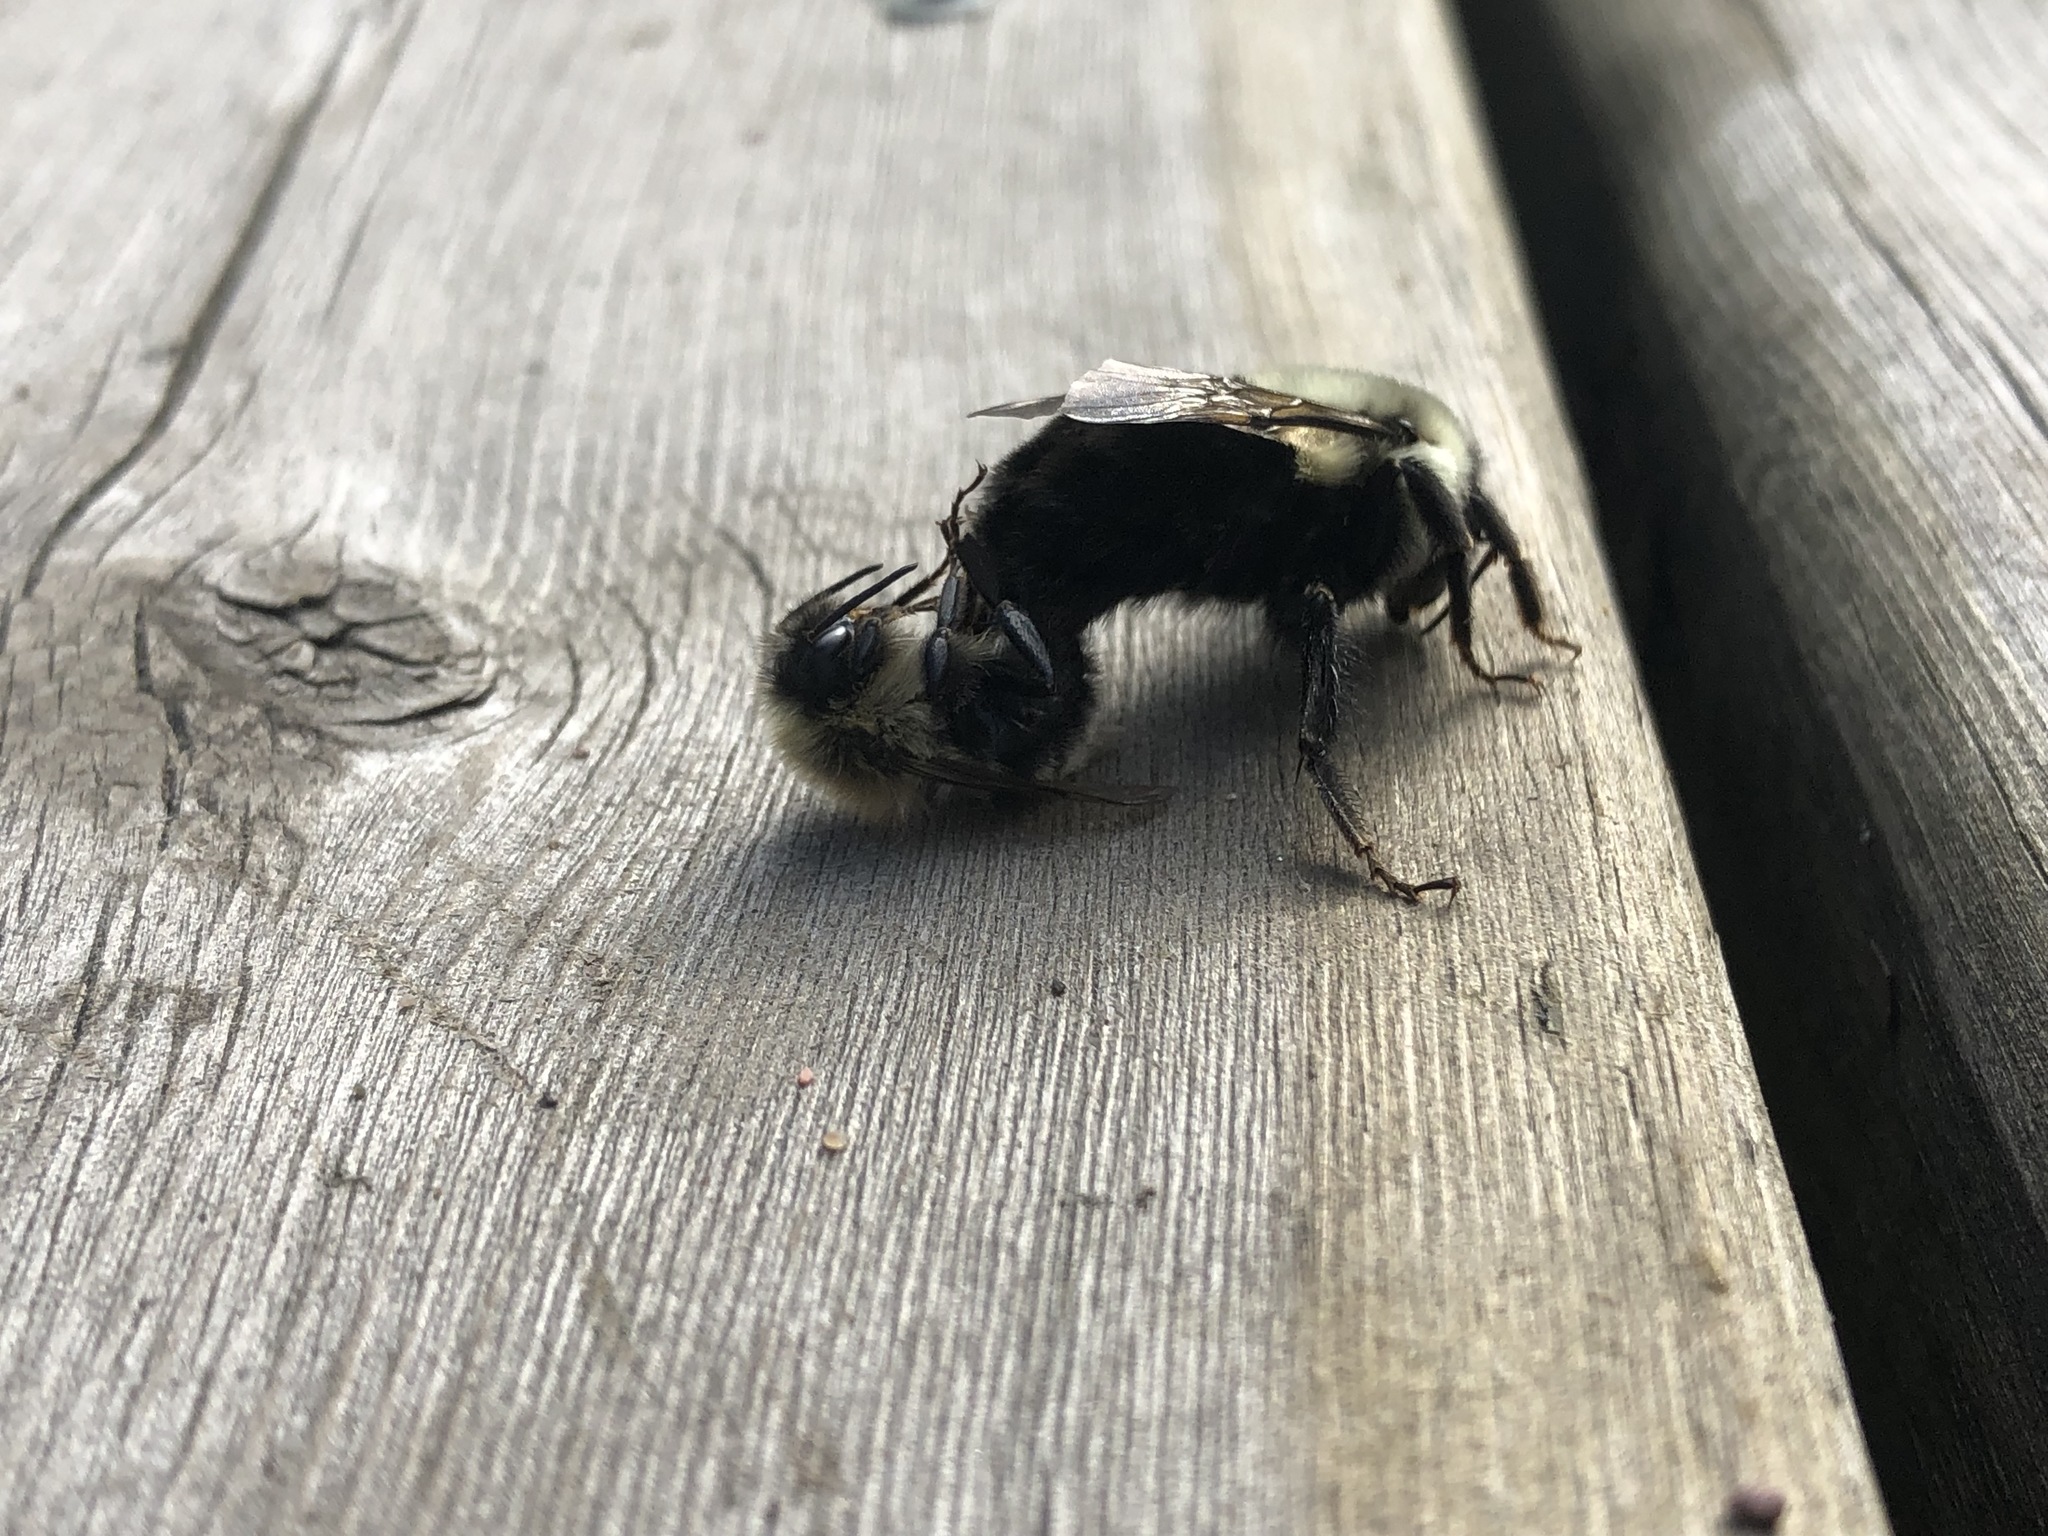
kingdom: Animalia
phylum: Arthropoda
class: Insecta
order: Hymenoptera
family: Apidae
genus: Bombus
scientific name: Bombus impatiens
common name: Common eastern bumble bee
